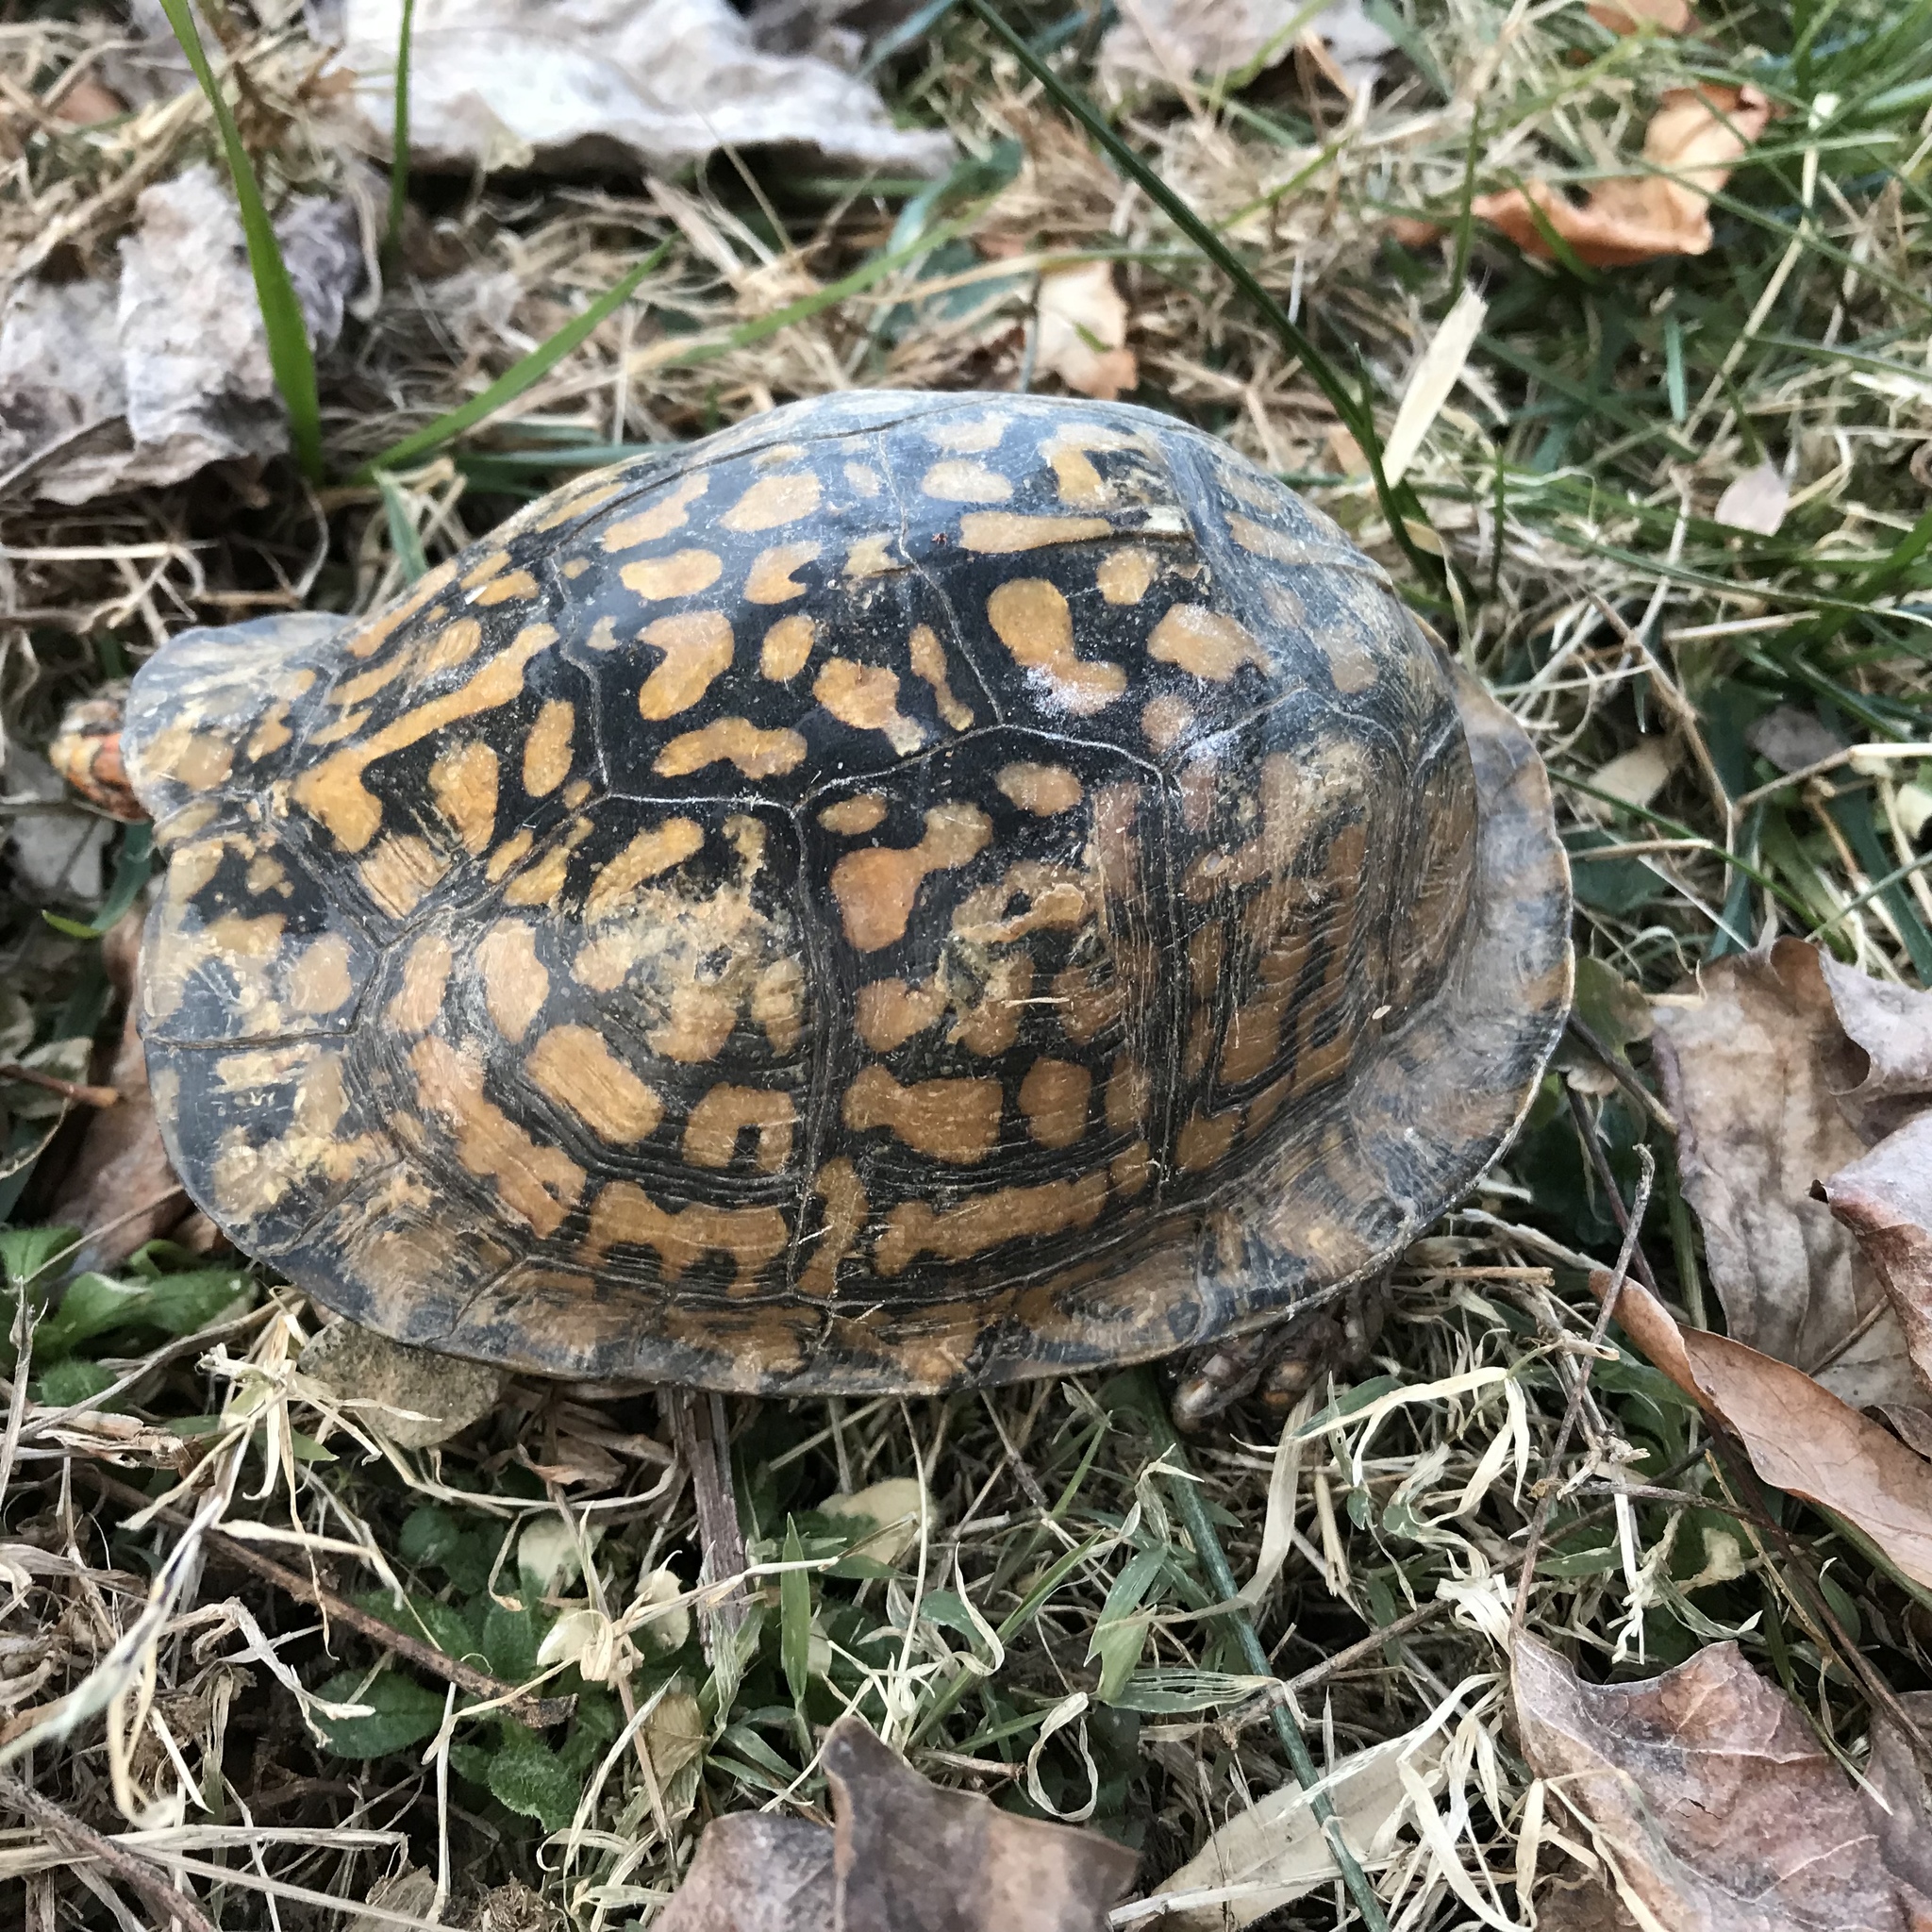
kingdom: Animalia
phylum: Chordata
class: Testudines
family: Emydidae
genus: Terrapene
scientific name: Terrapene carolina
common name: Common box turtle
